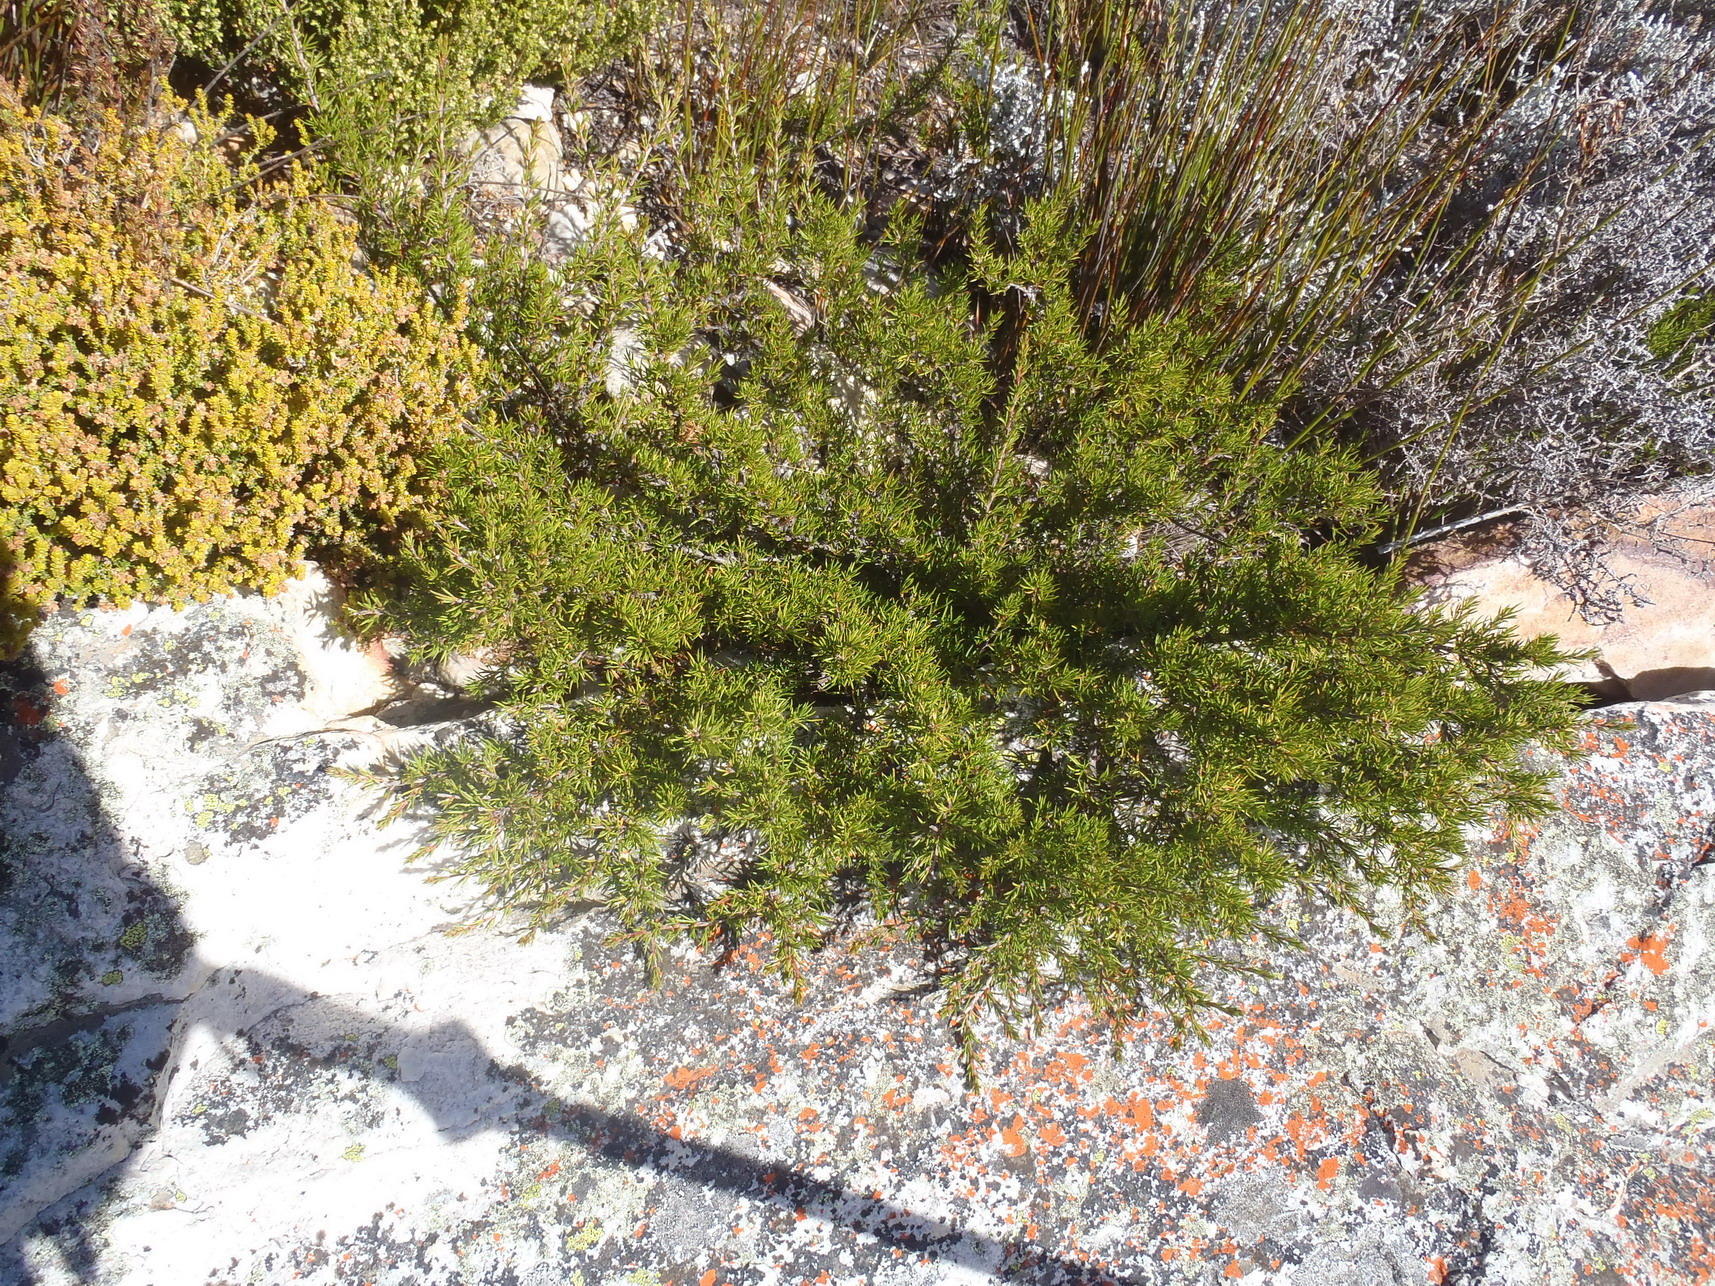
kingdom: Plantae
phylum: Tracheophyta
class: Magnoliopsida
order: Rosales
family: Rosaceae
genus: Cliffortia
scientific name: Cliffortia neglecta
